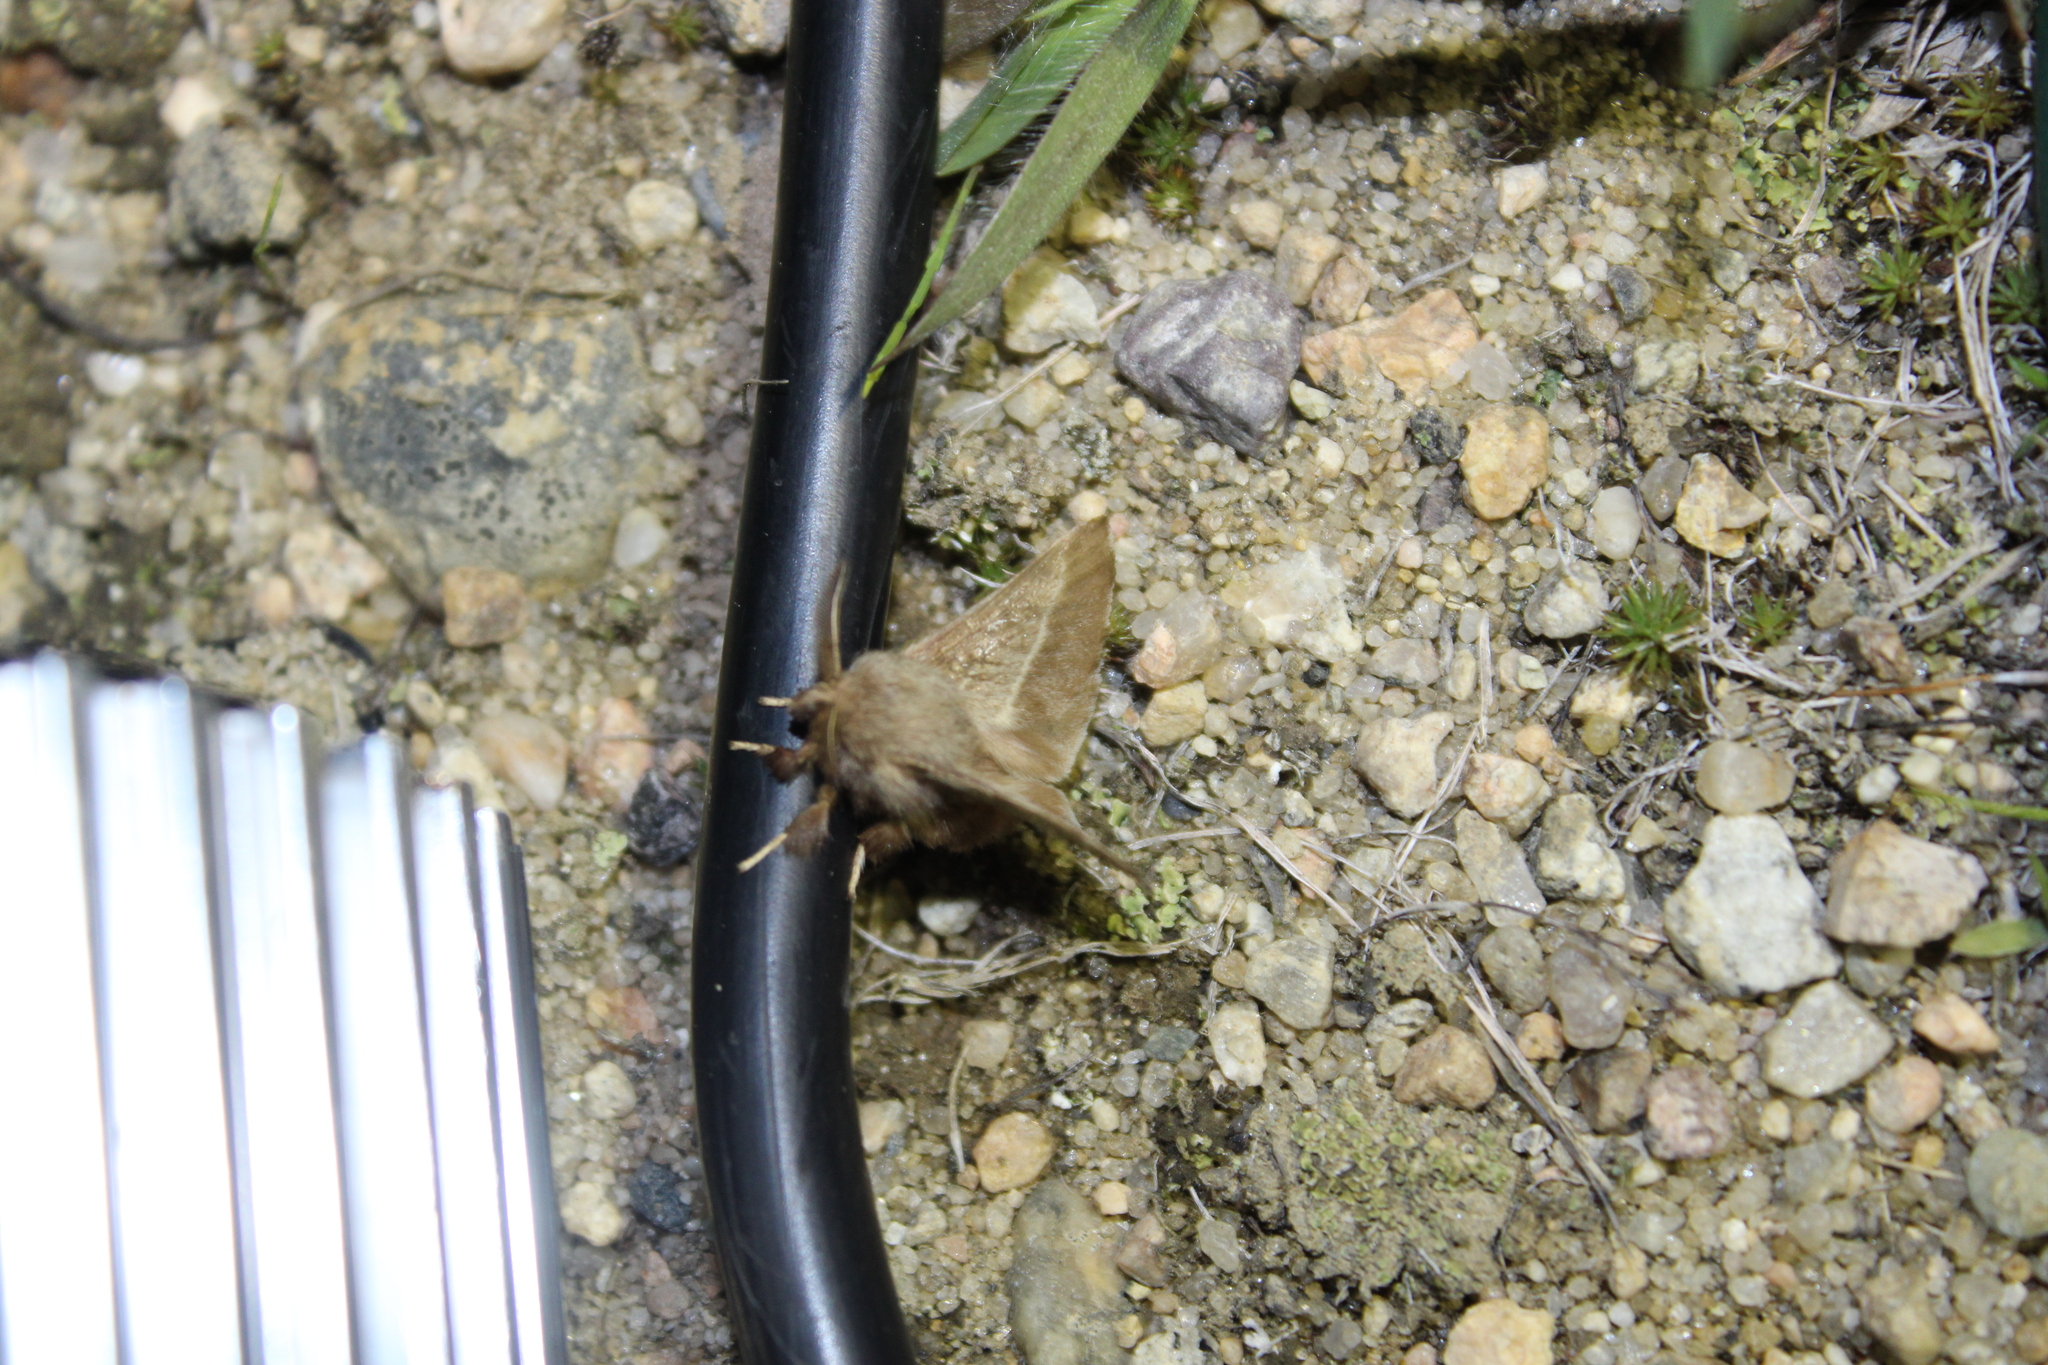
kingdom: Animalia
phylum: Arthropoda
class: Insecta
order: Lepidoptera
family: Lasiocampidae
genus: Malacosoma
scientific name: Malacosoma americana
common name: Eastern tent caterpillar moth
